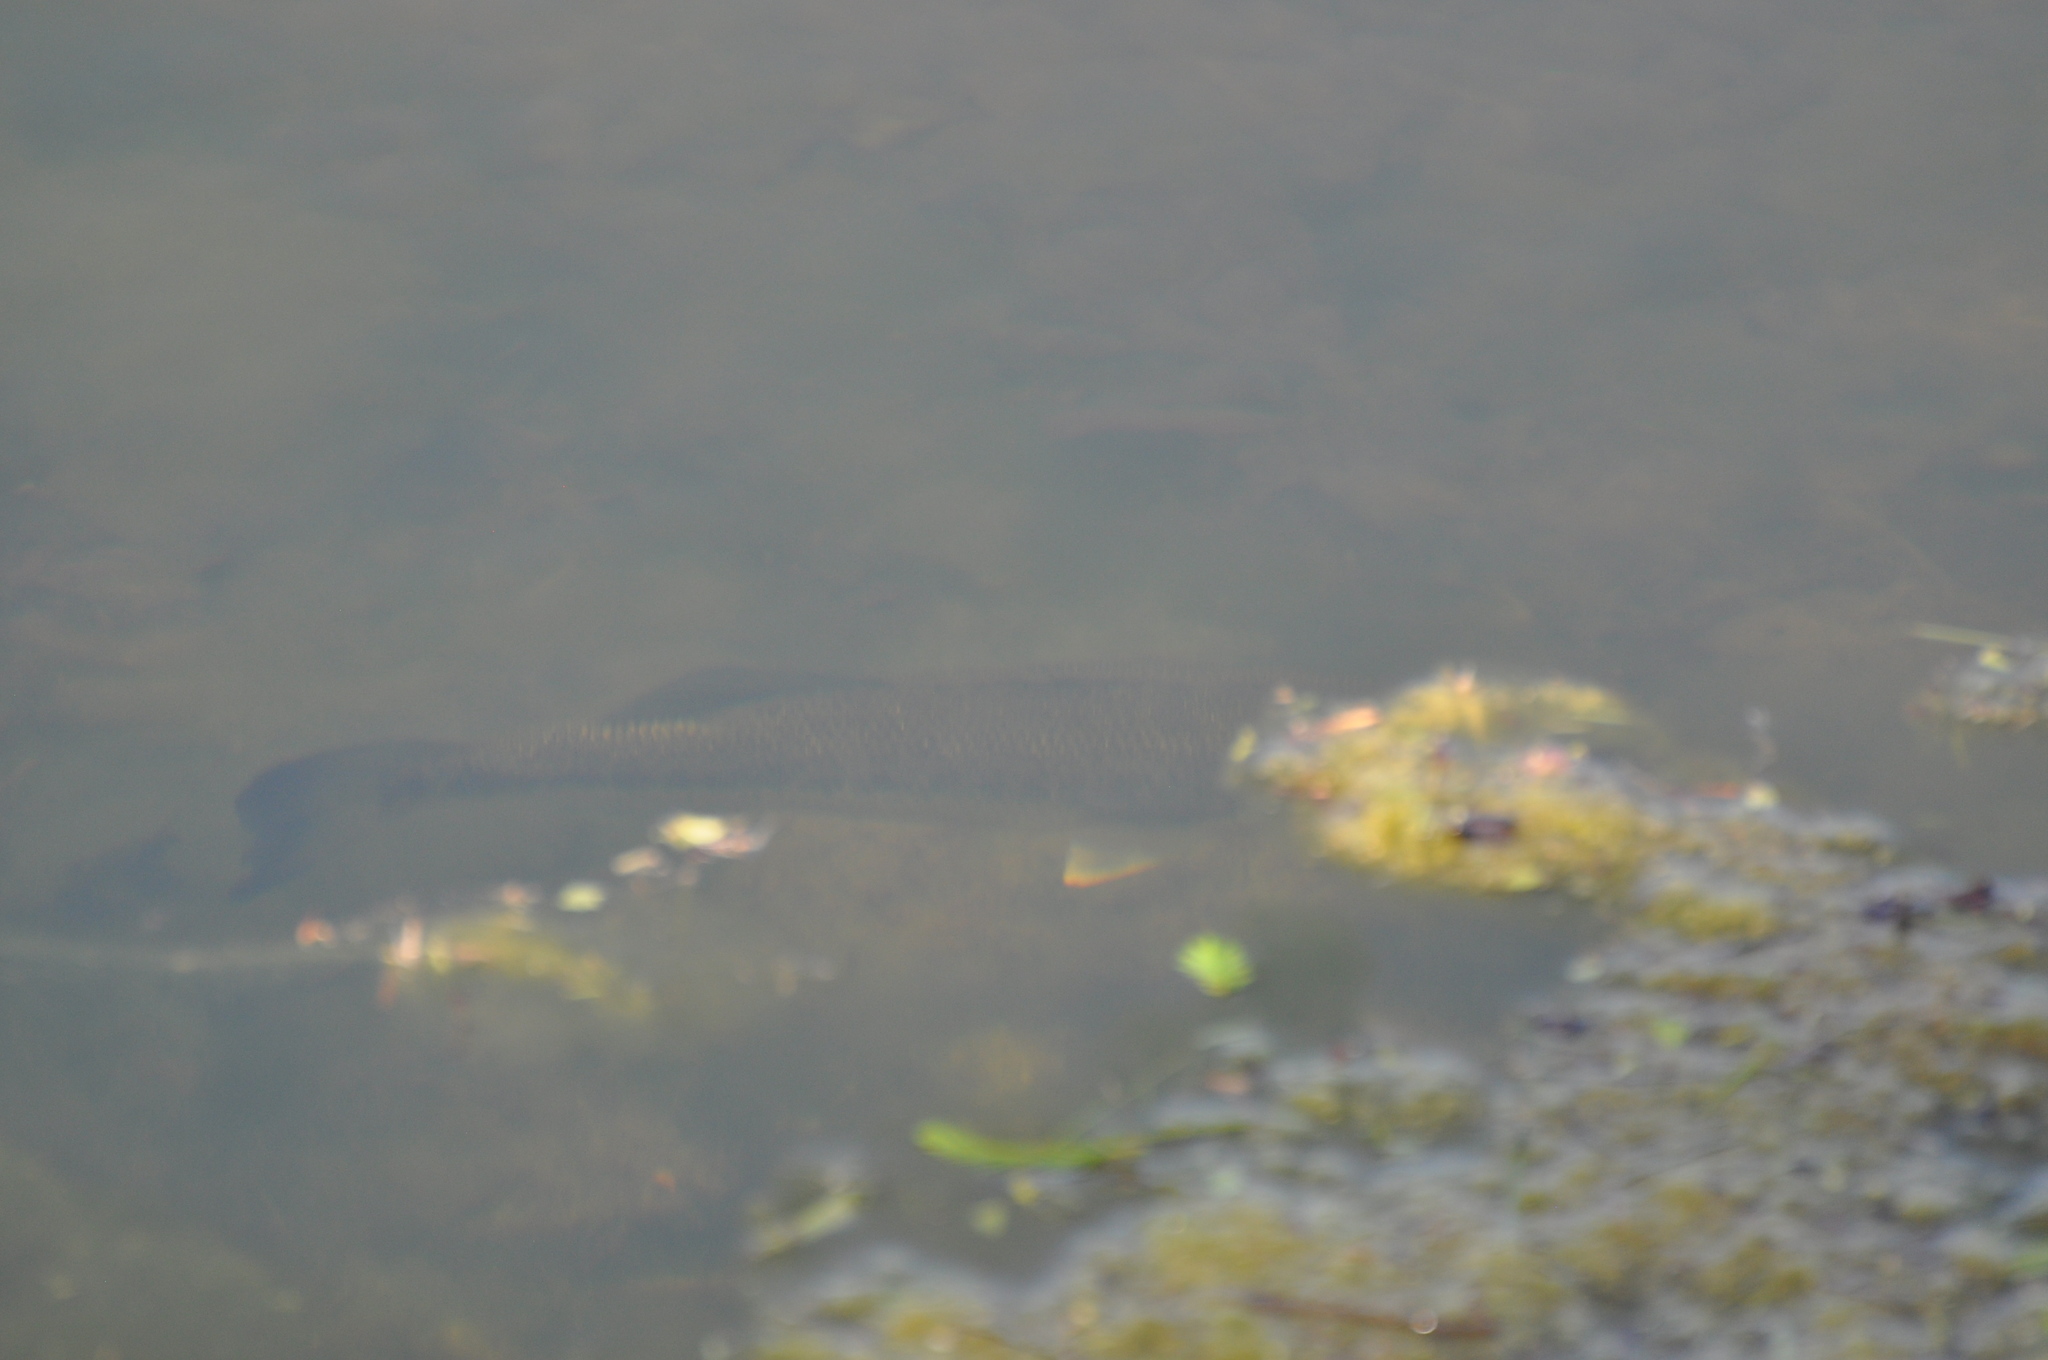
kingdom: Animalia
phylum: Chordata
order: Perciformes
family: Centrarchidae
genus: Micropterus
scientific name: Micropterus
